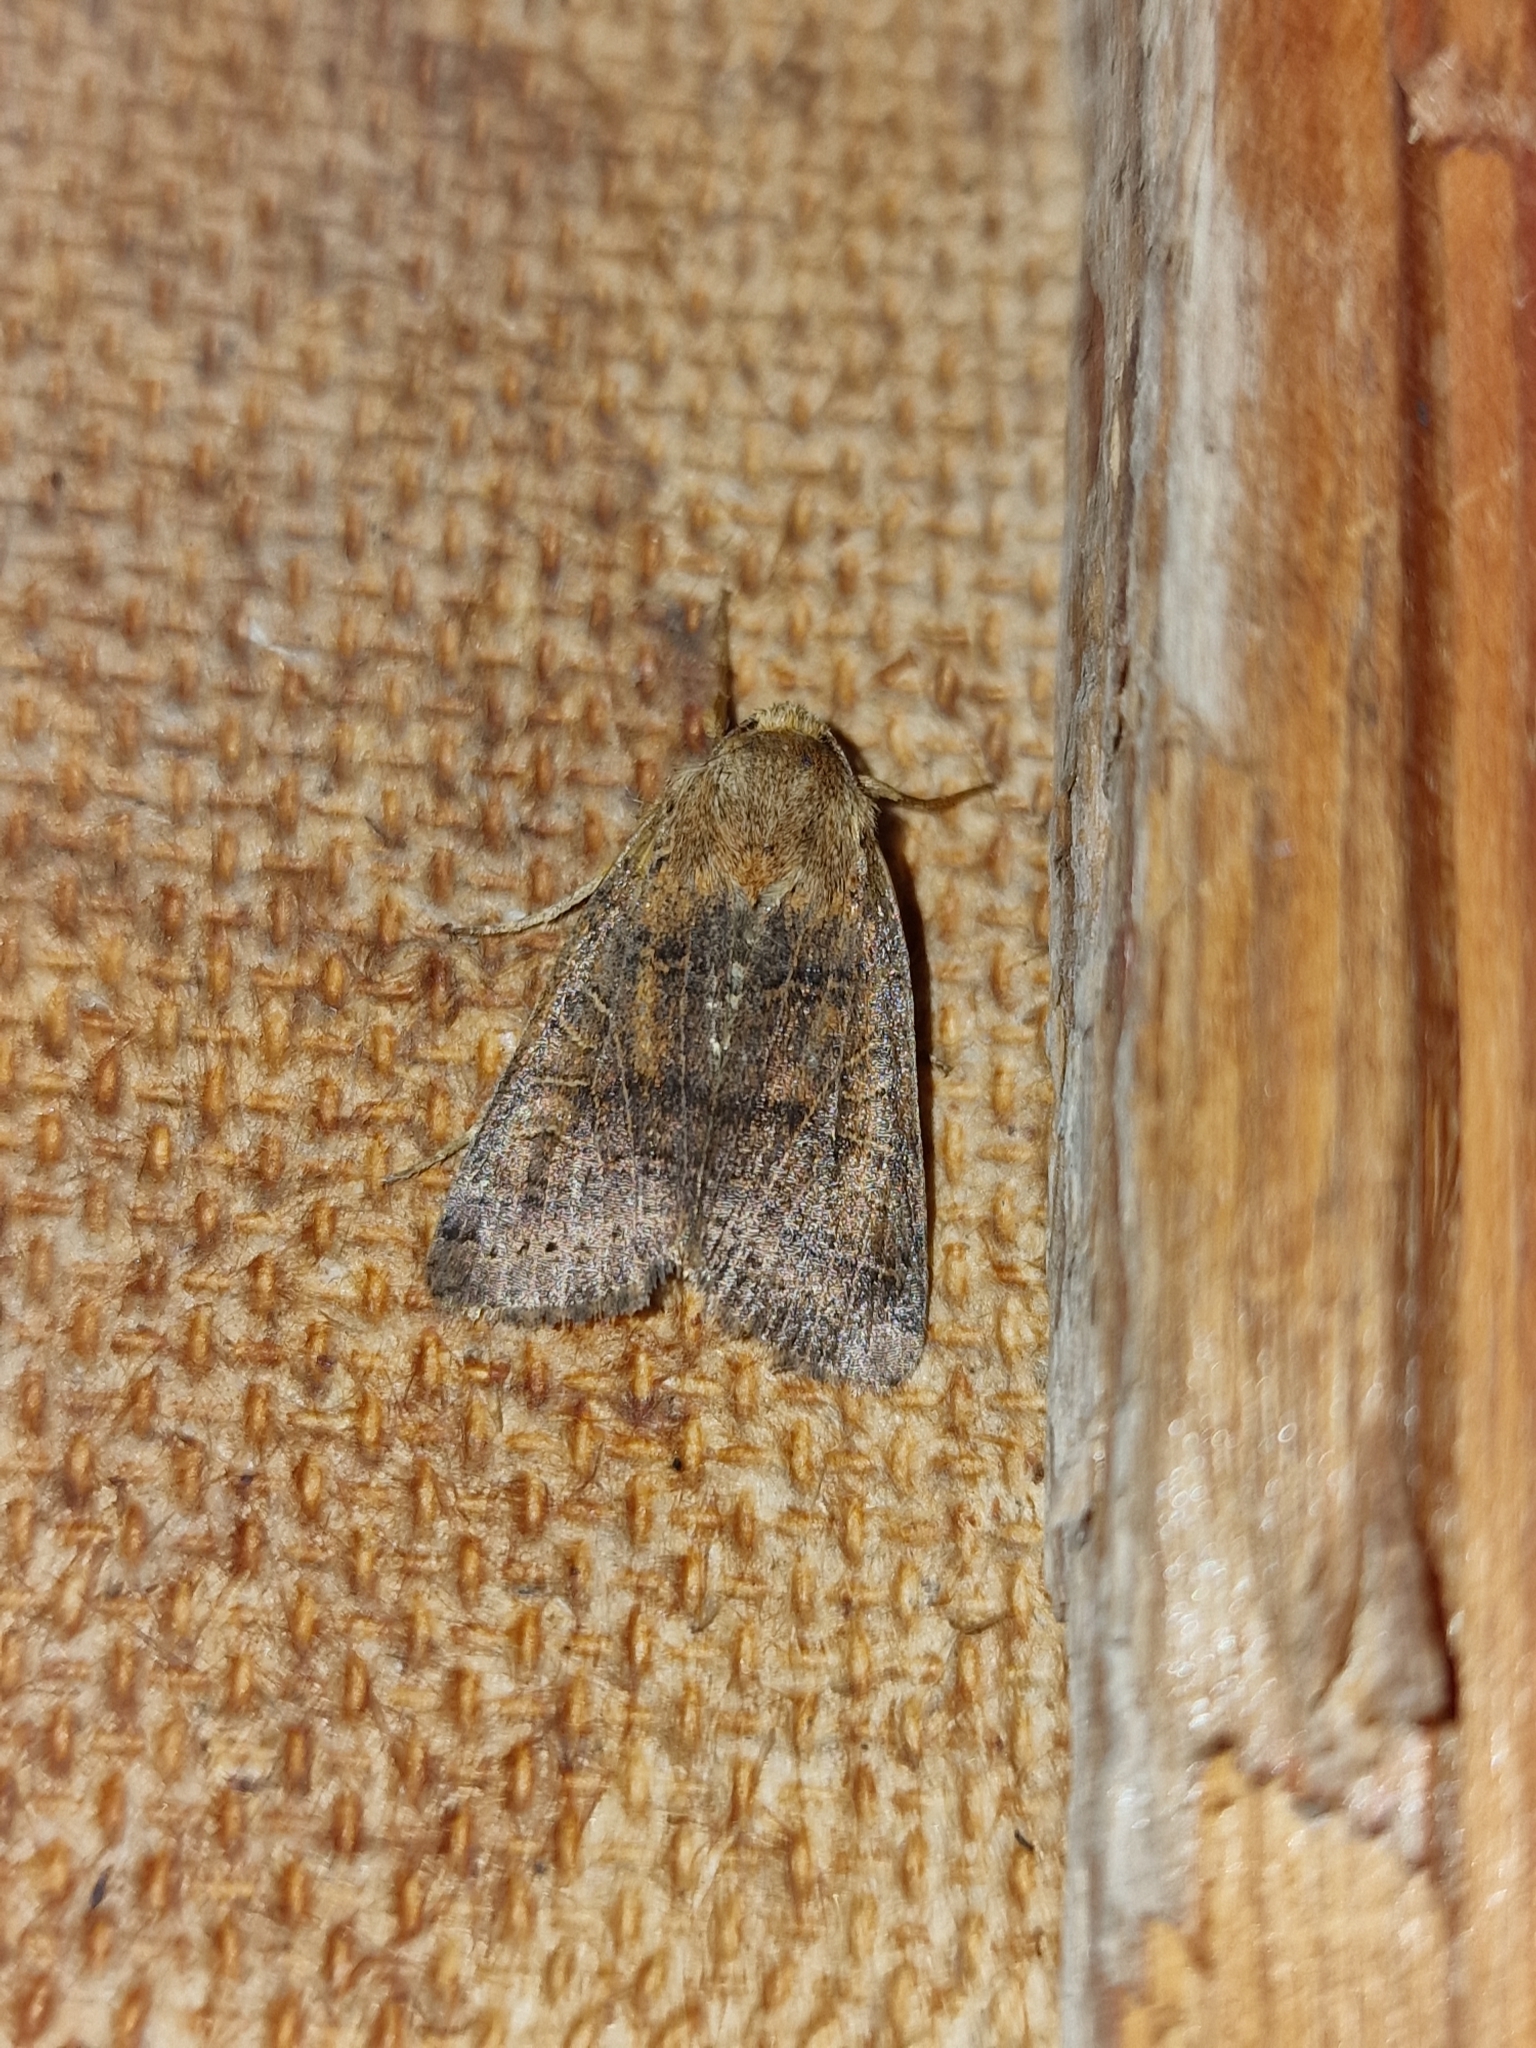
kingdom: Animalia
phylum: Arthropoda
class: Insecta
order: Lepidoptera
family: Noctuidae
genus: Agrochola
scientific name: Agrochola nitida
